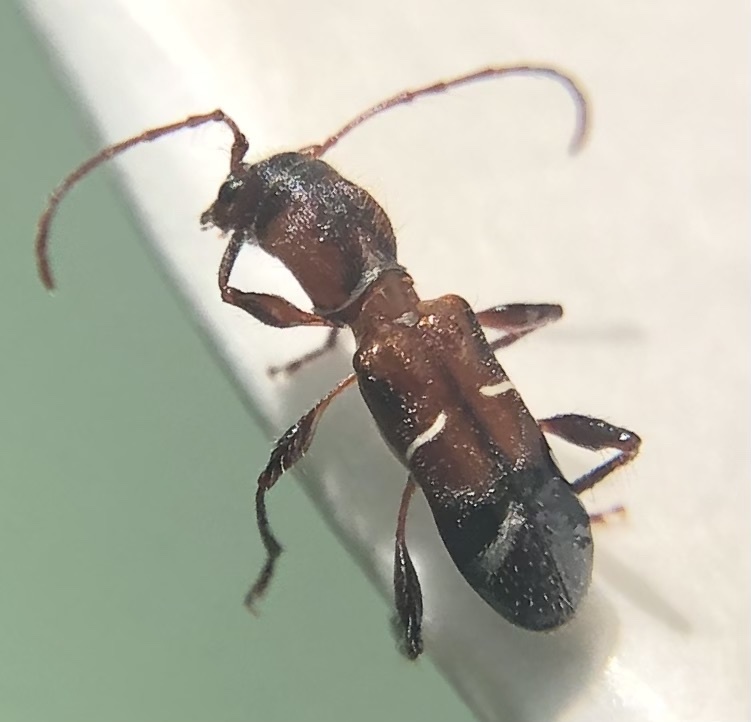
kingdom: Animalia
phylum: Arthropoda
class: Insecta
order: Coleoptera
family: Cerambycidae
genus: Euderces
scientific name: Euderces pini
